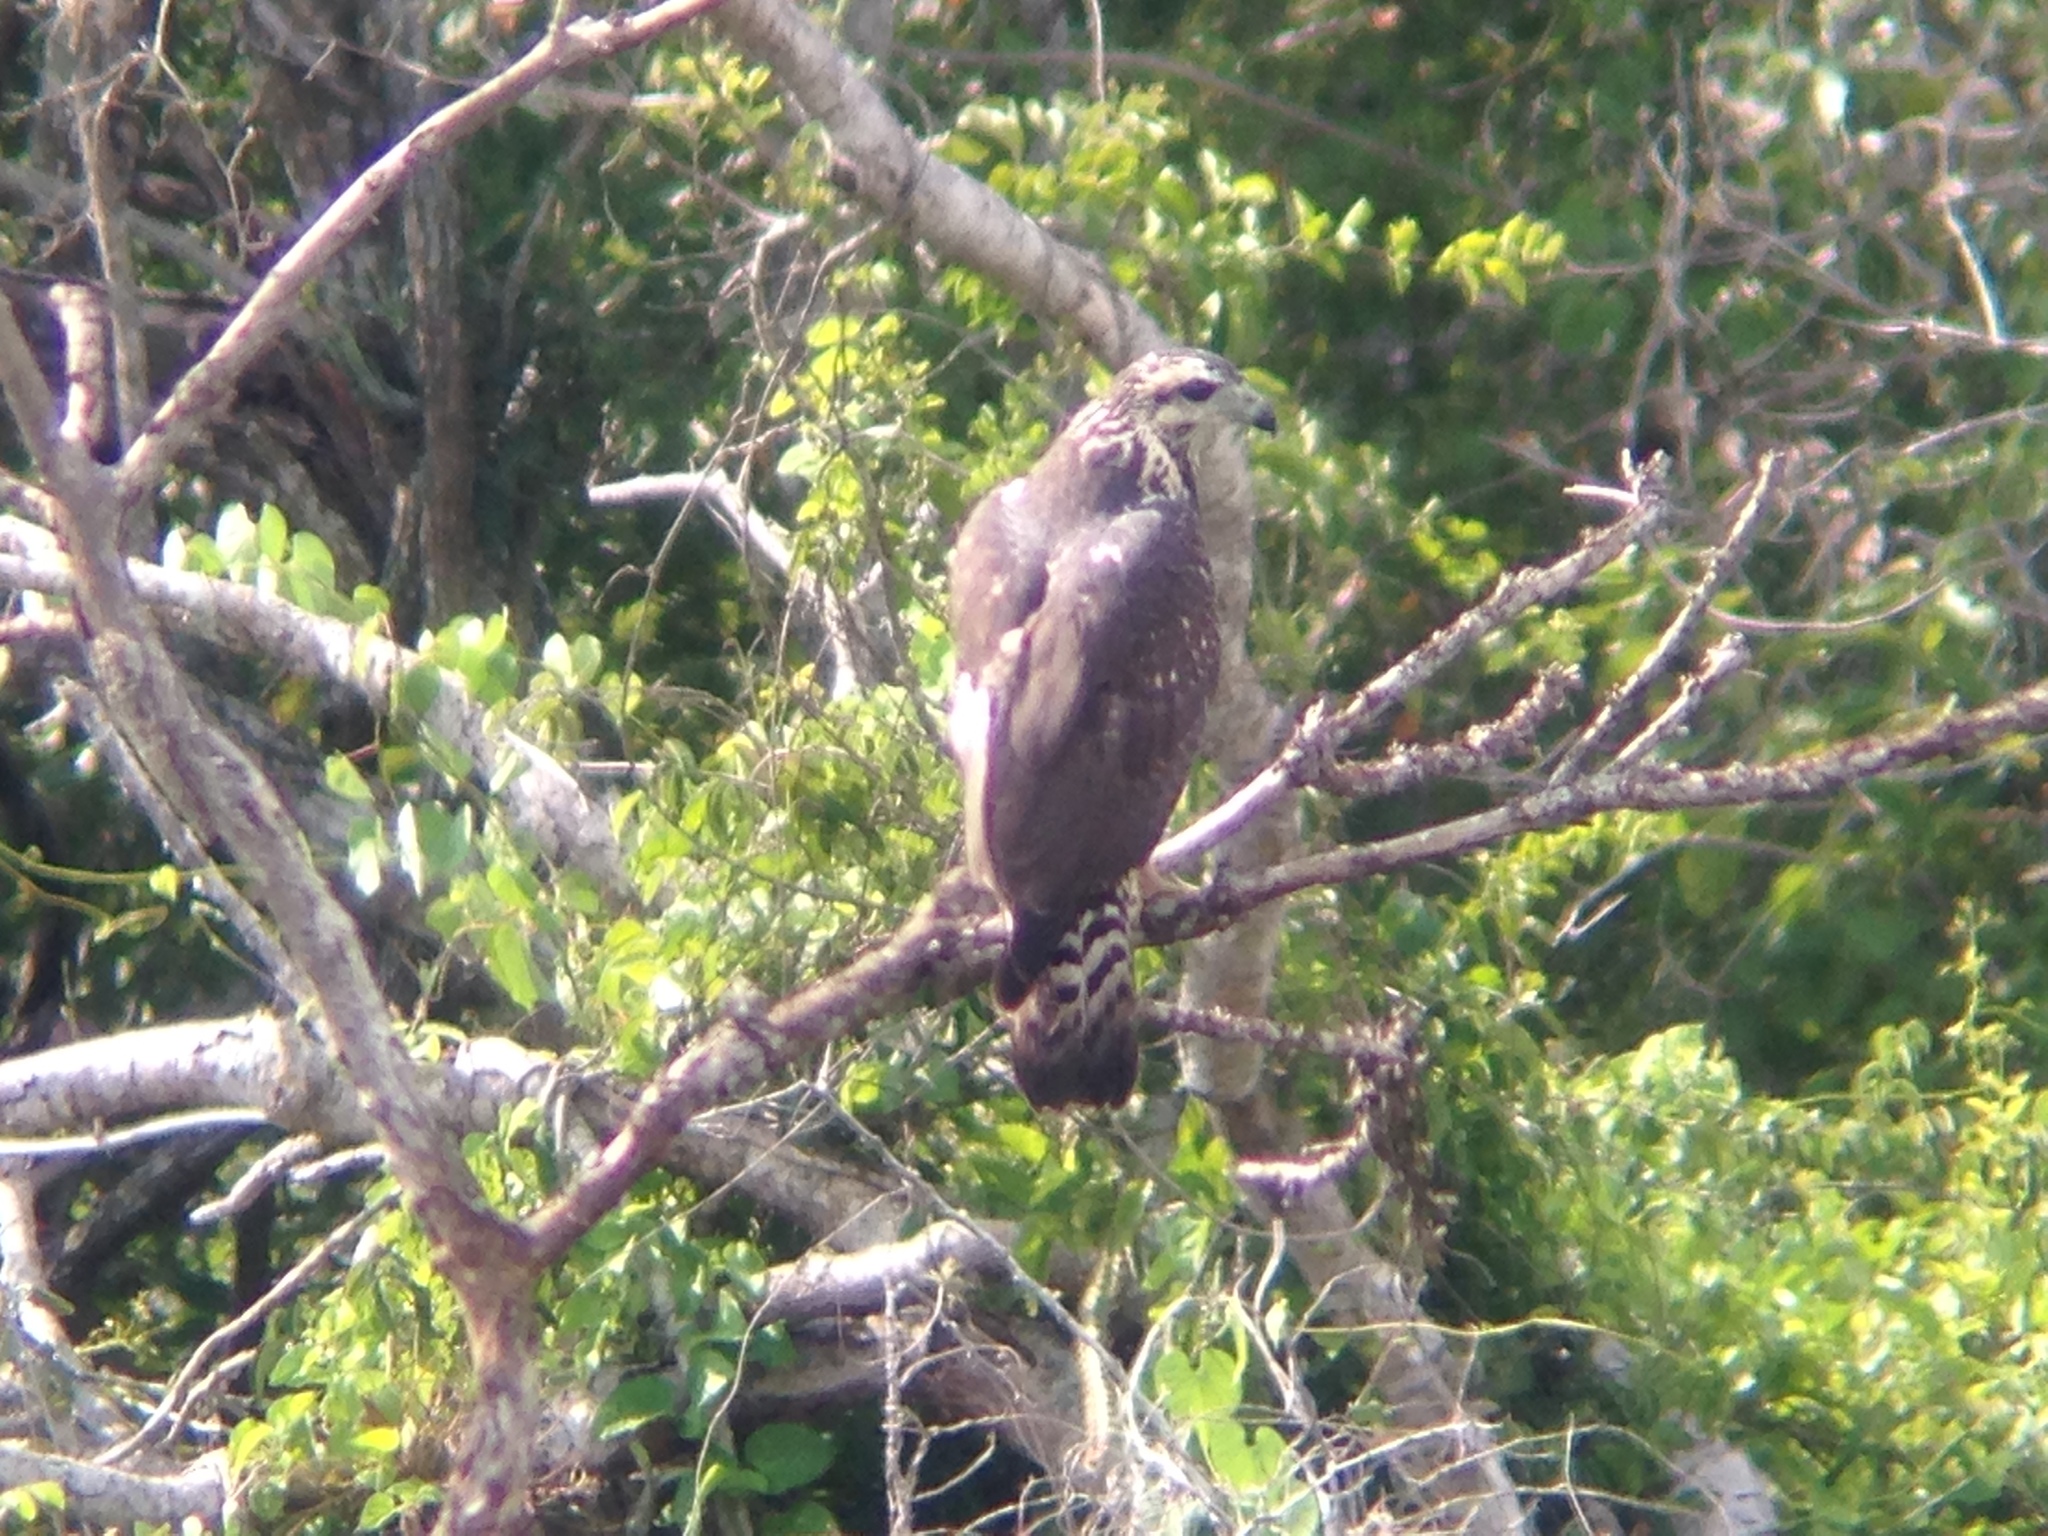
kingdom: Animalia
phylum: Chordata
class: Aves
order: Accipitriformes
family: Accipitridae
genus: Buteogallus
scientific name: Buteogallus anthracinus
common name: Common black hawk
